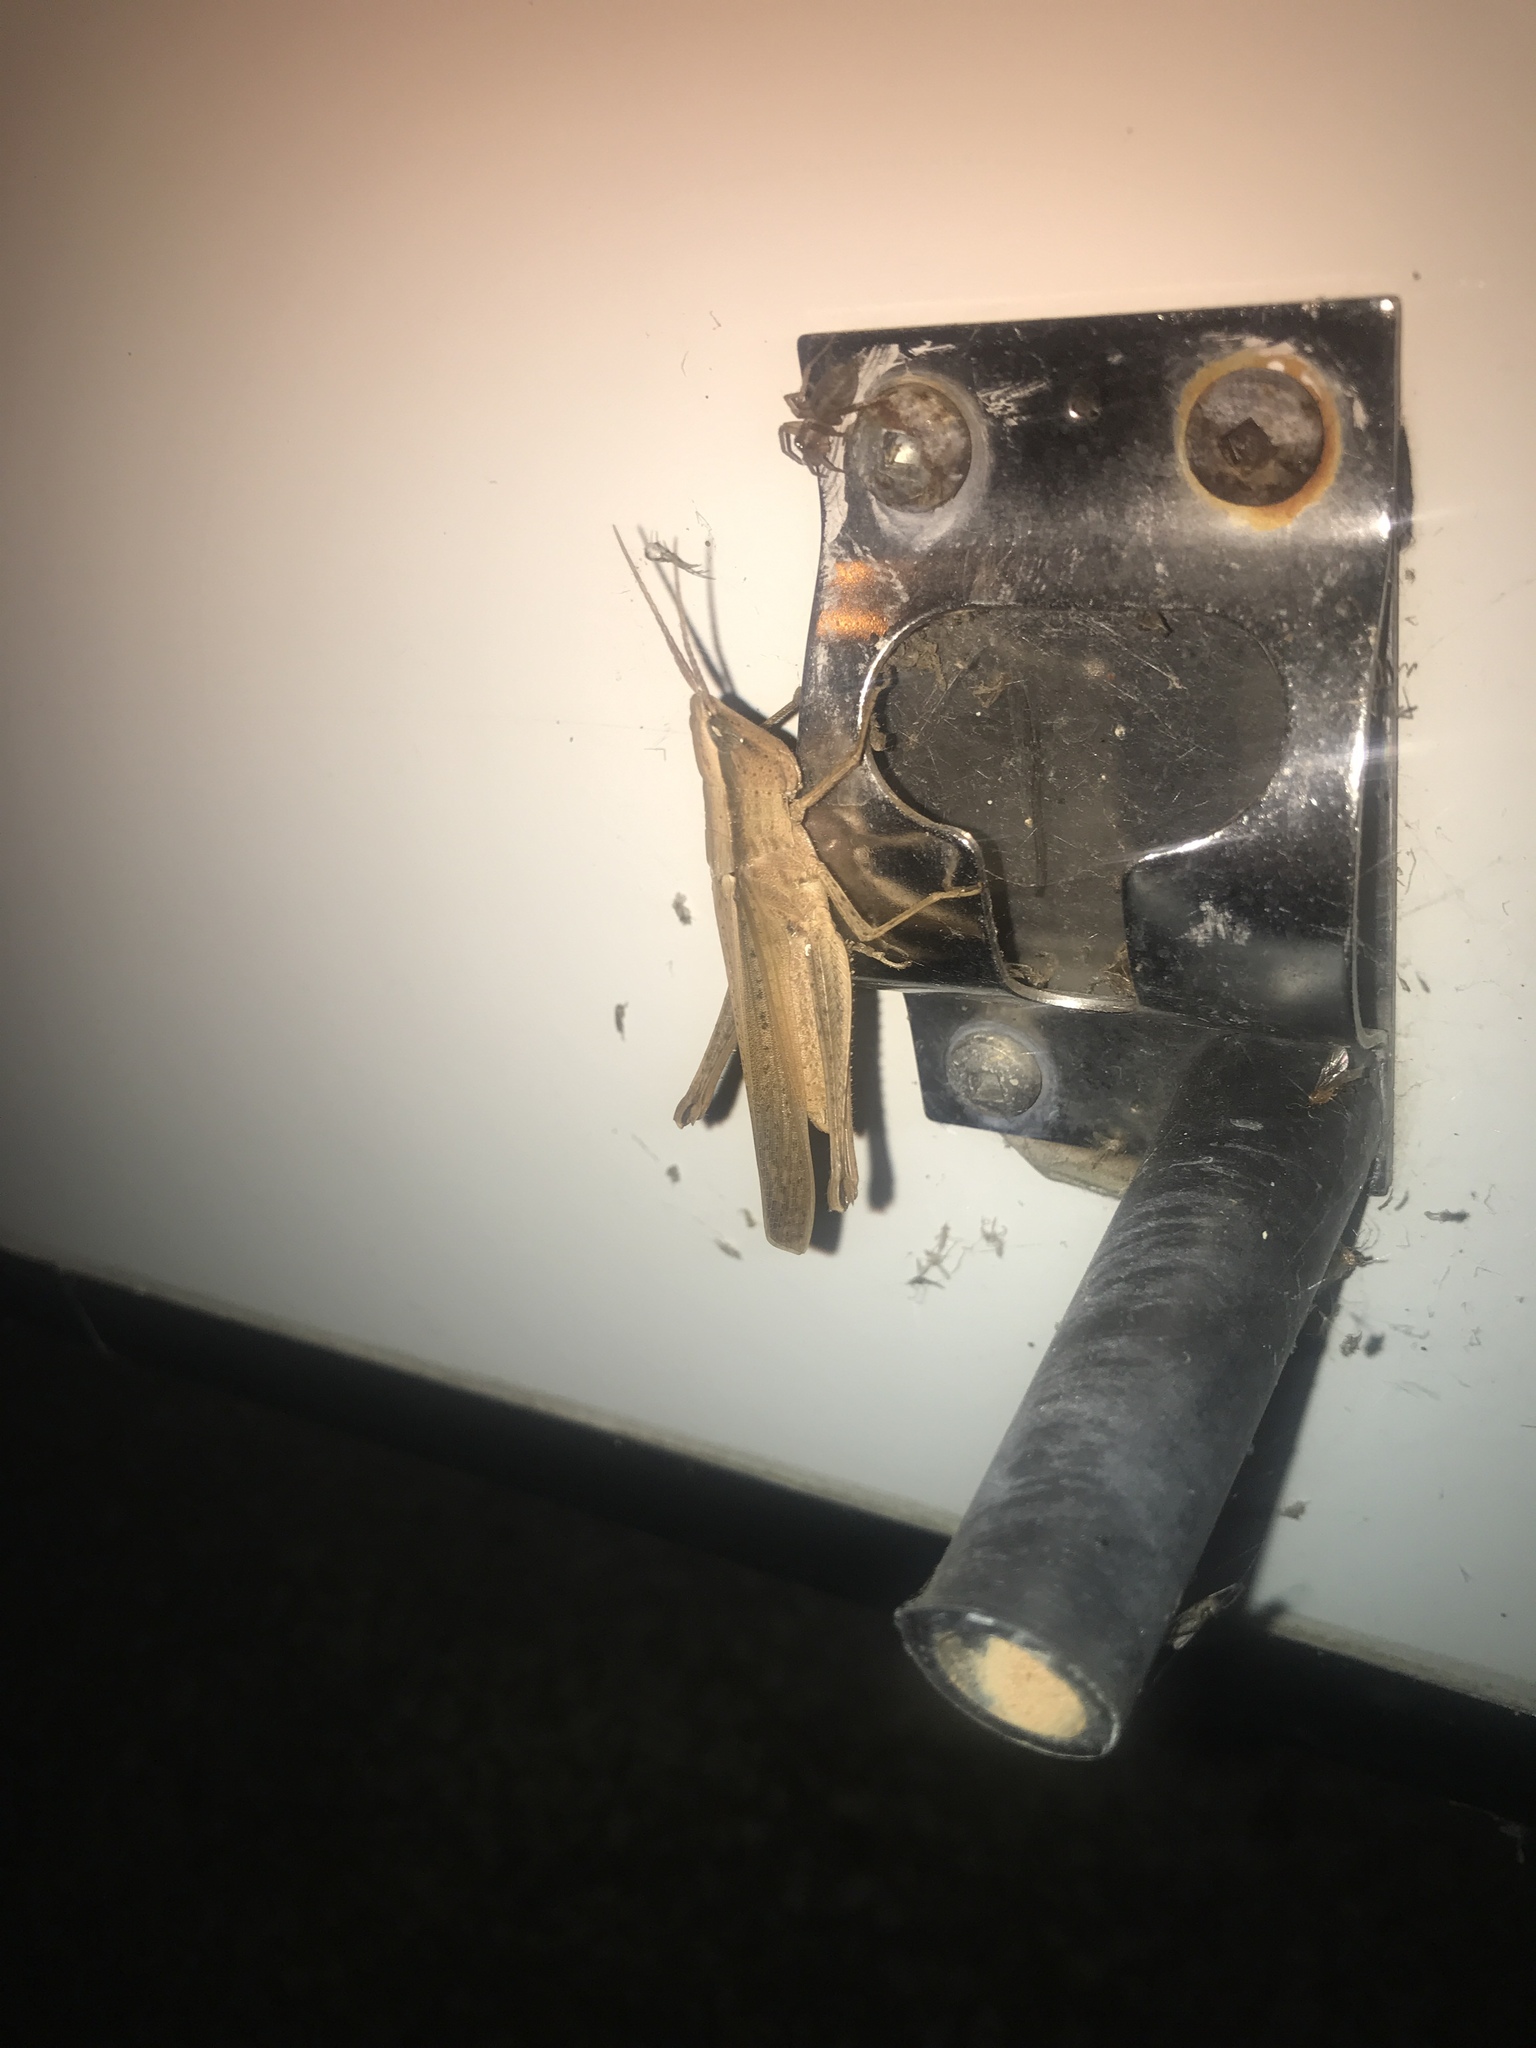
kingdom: Animalia
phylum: Arthropoda
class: Insecta
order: Orthoptera
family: Acrididae
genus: Metaleptea
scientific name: Metaleptea brevicornis
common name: Clipped-wing grasshopper
